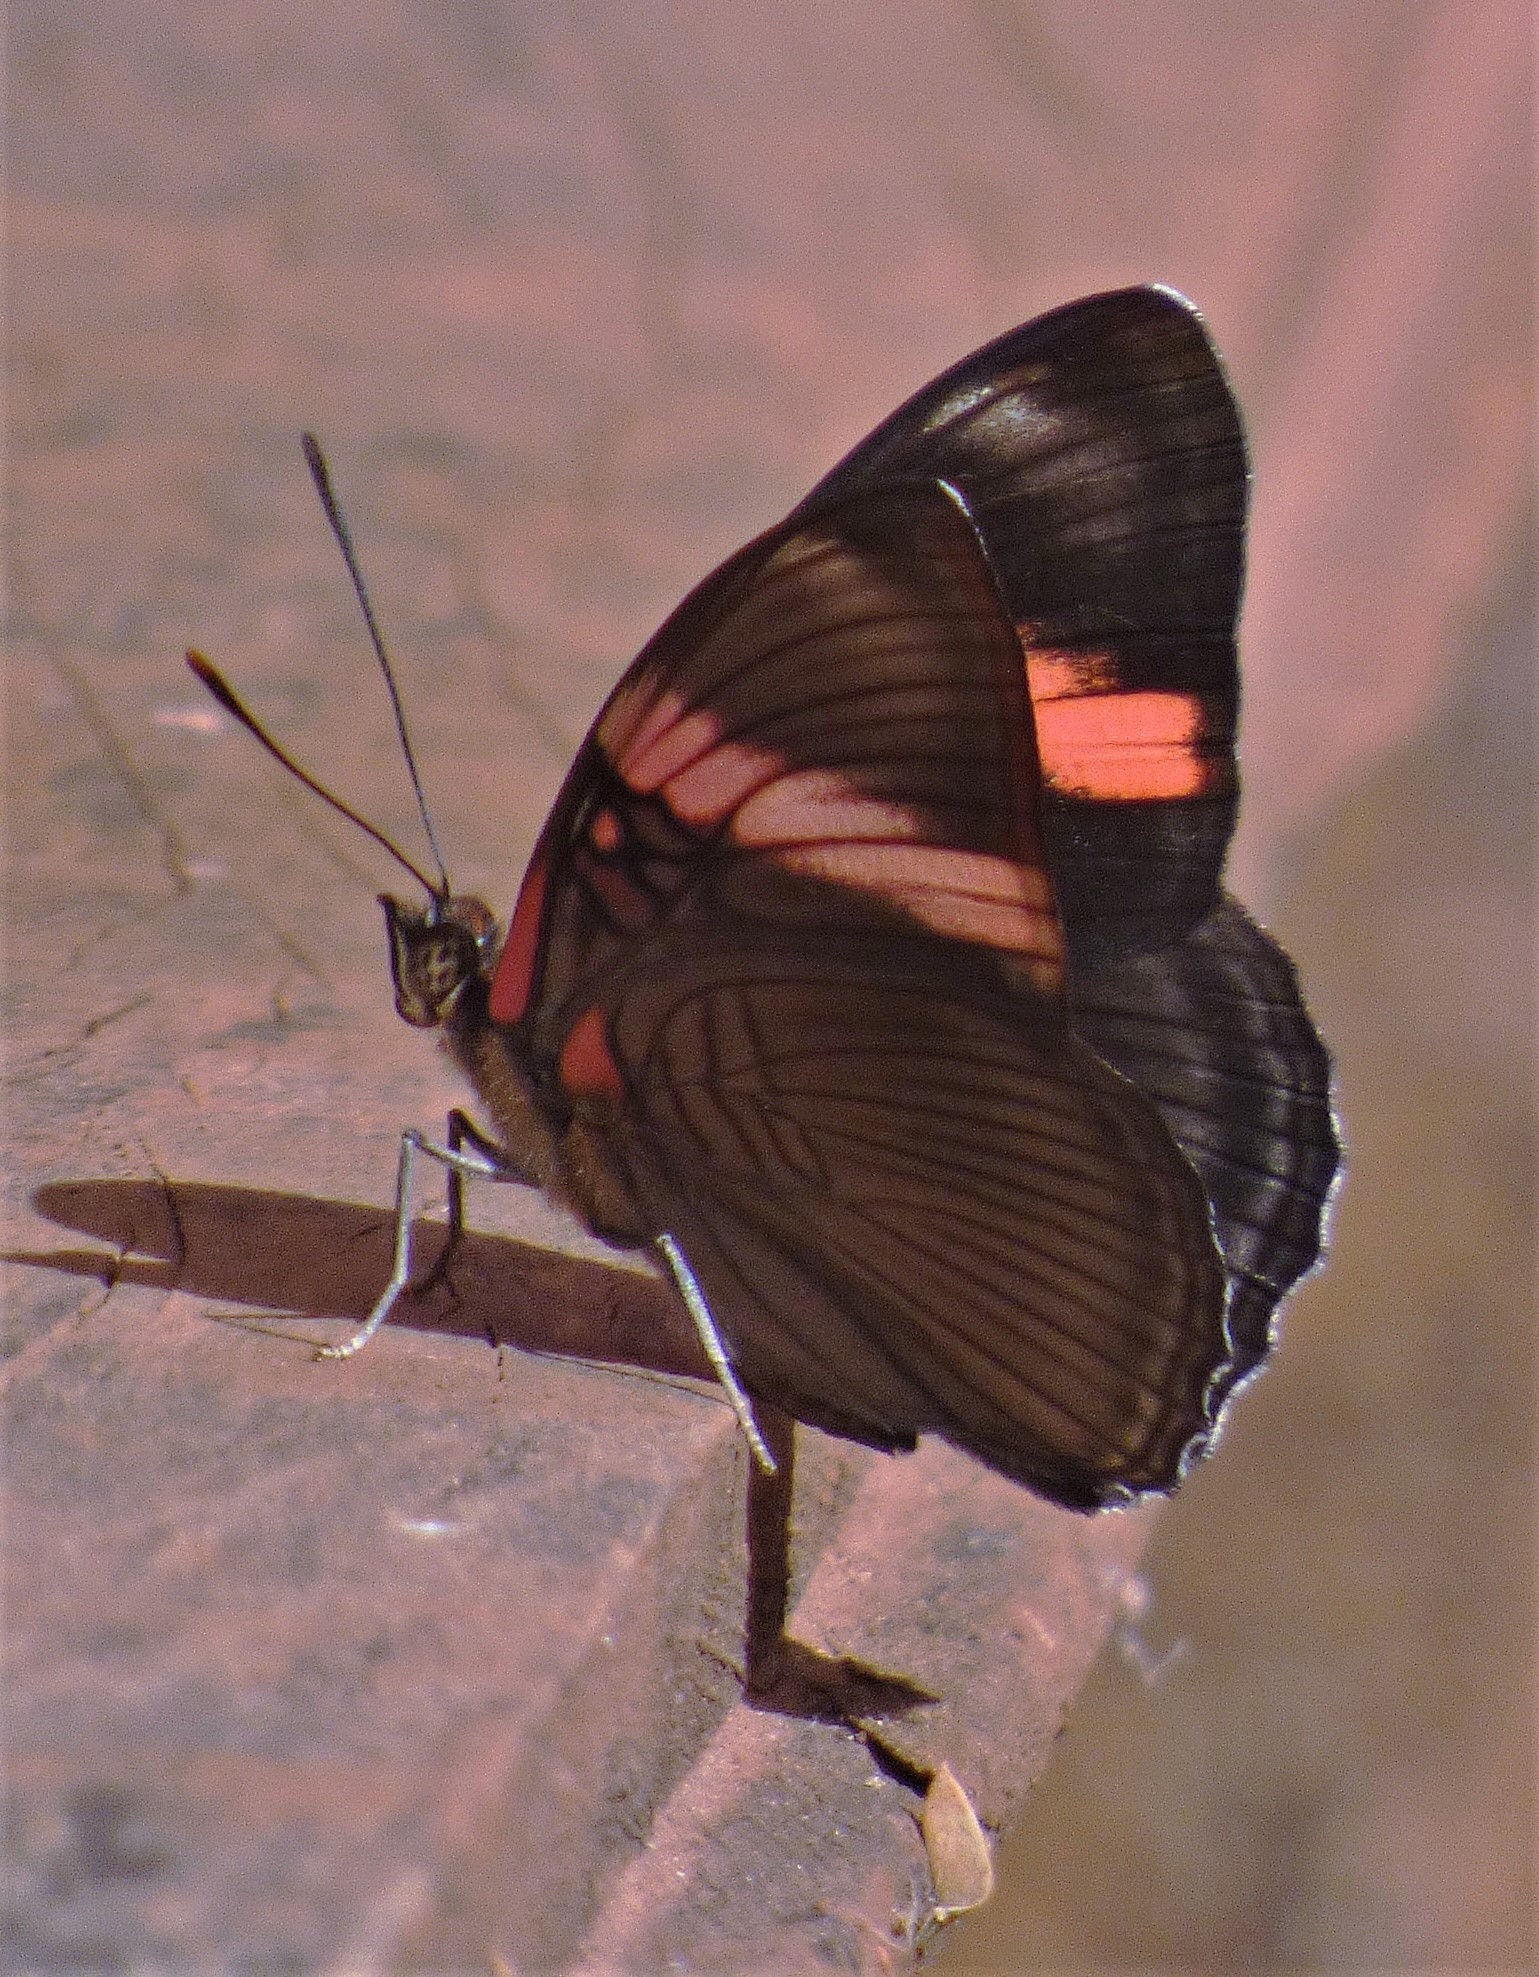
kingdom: Animalia
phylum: Arthropoda
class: Insecta
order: Lepidoptera
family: Nymphalidae
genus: Limenitis
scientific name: Limenitis isis
